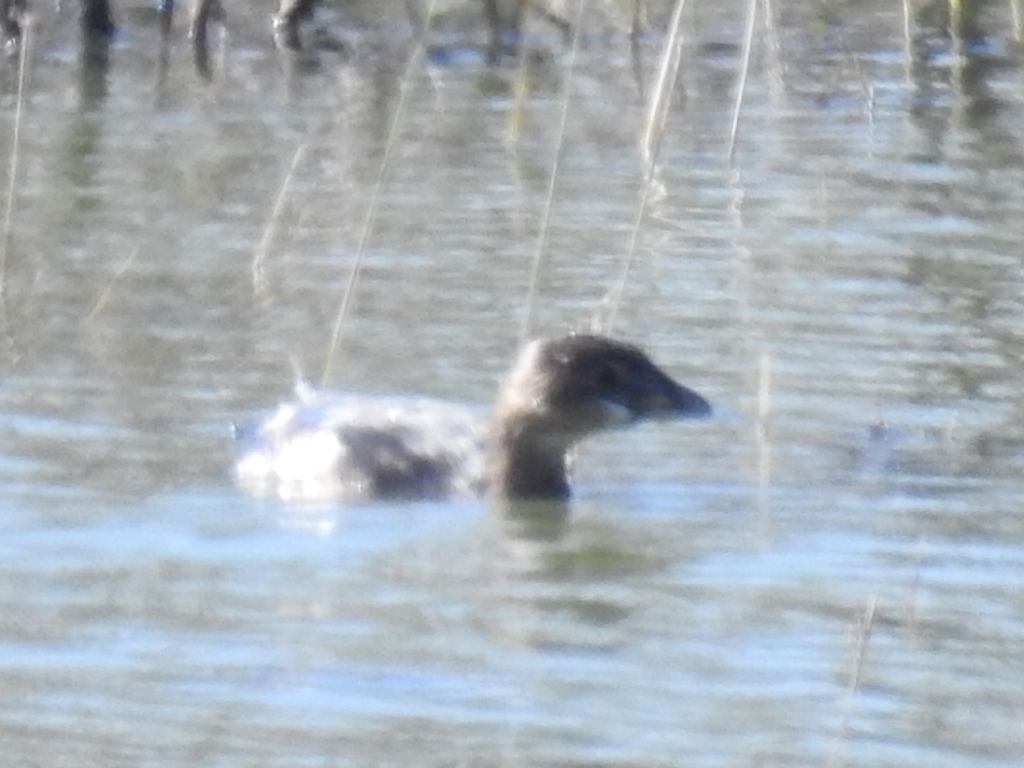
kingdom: Animalia
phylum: Chordata
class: Aves
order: Podicipediformes
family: Podicipedidae
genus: Podilymbus
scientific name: Podilymbus podiceps
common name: Pied-billed grebe
